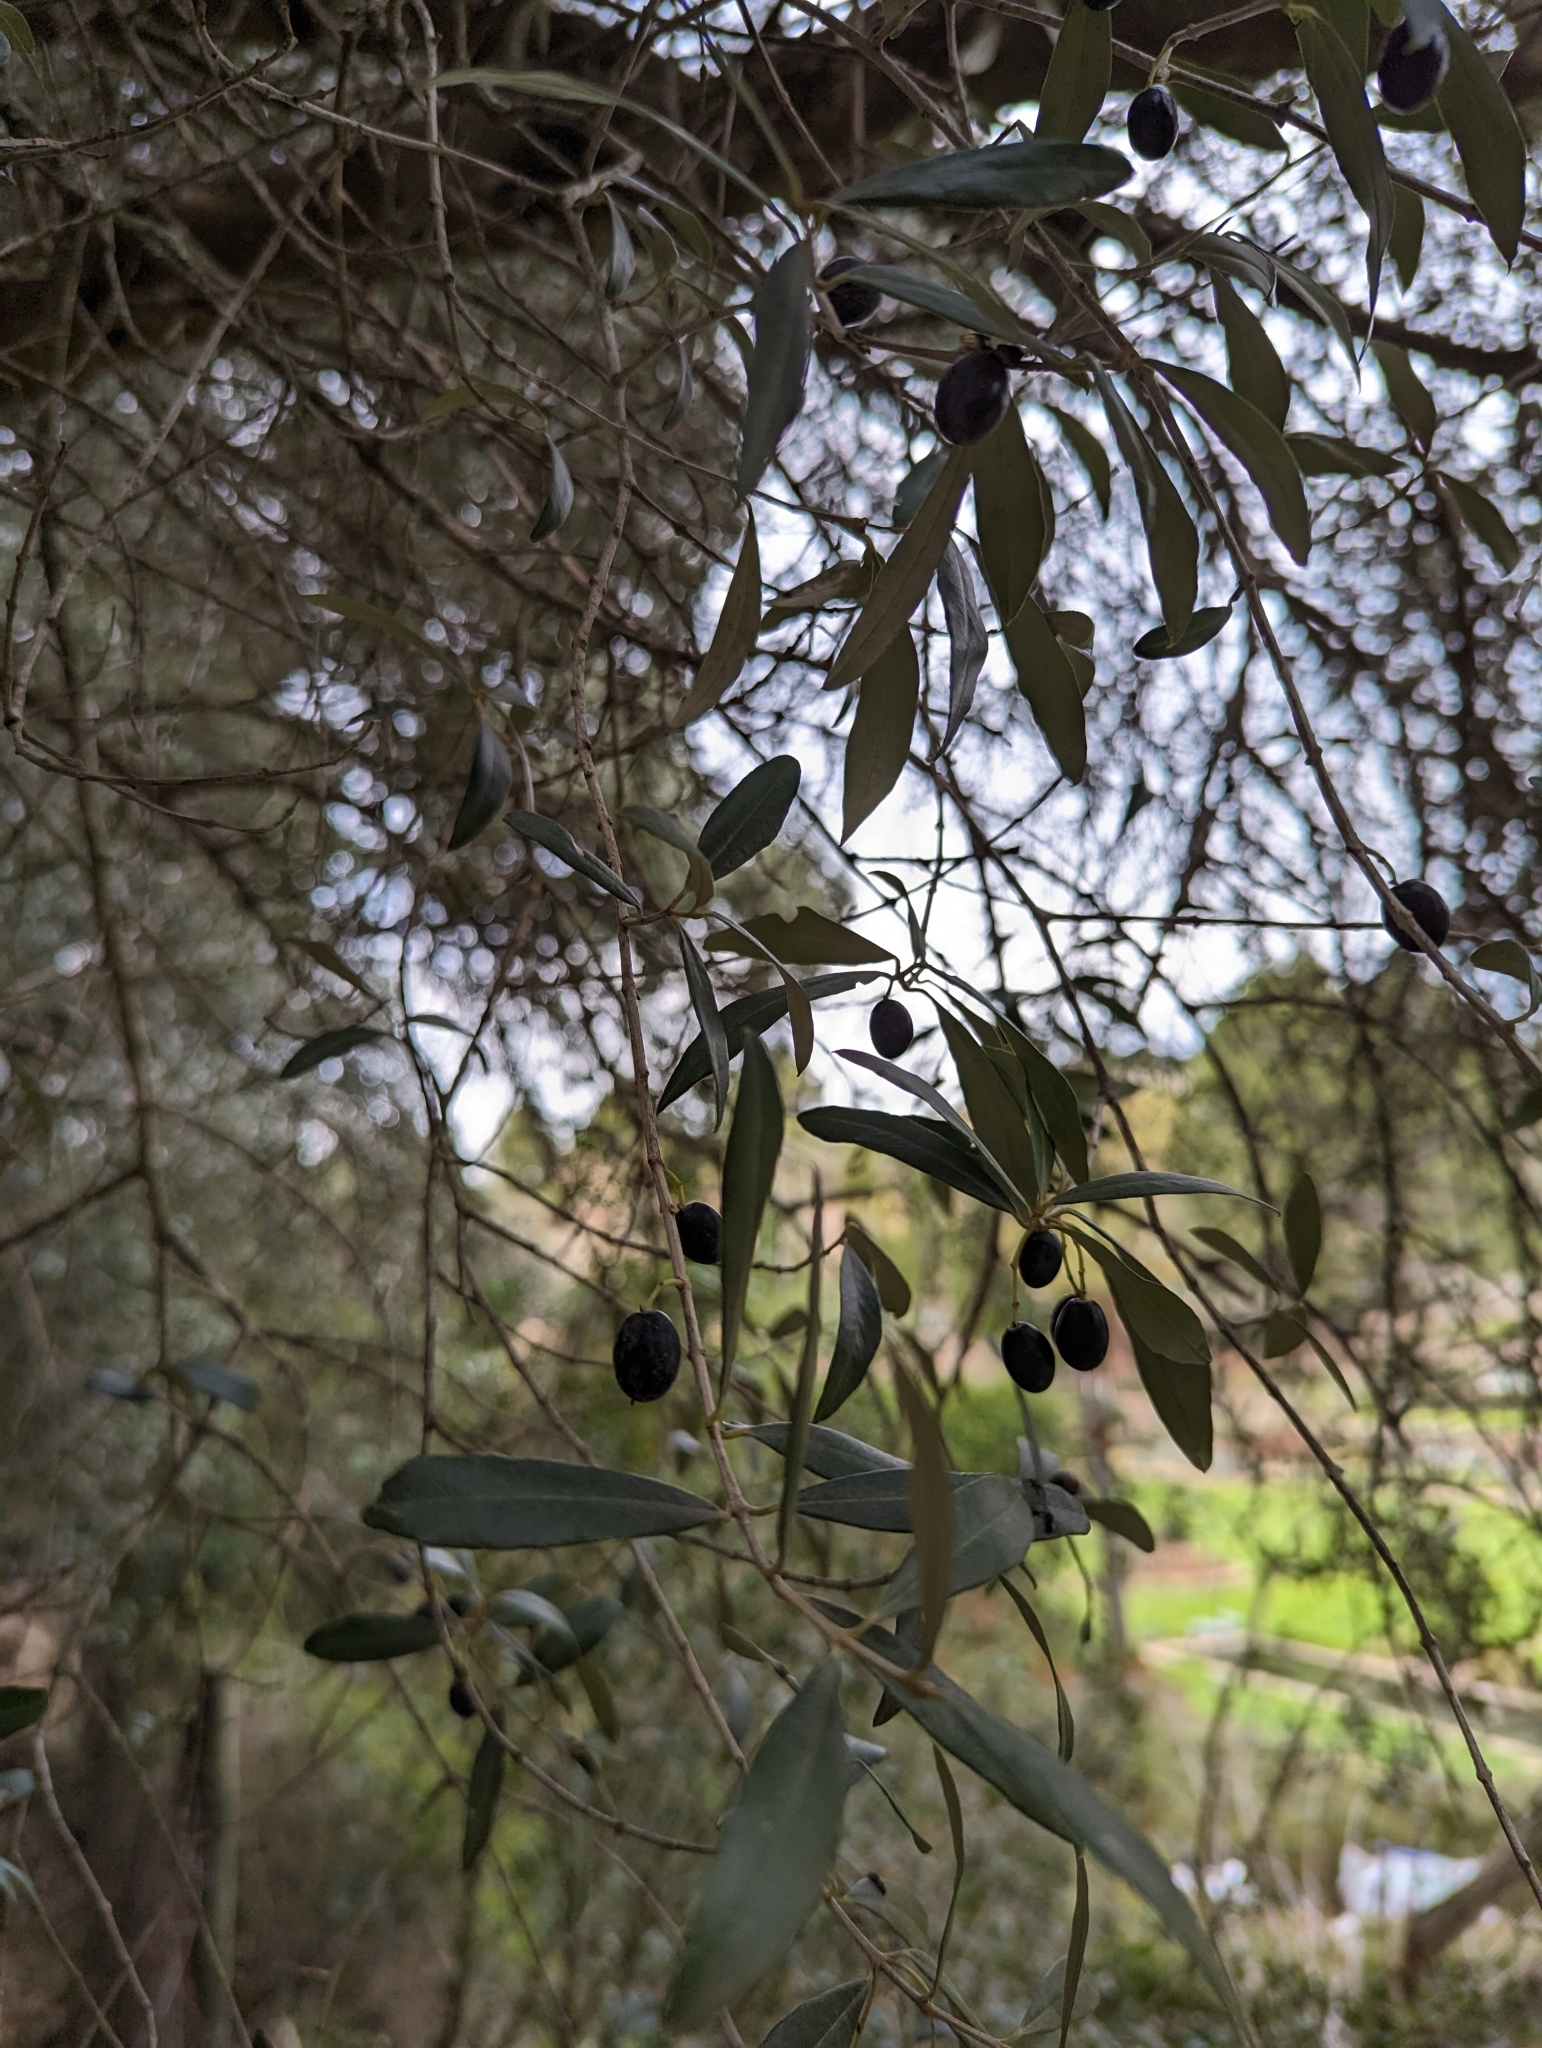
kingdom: Plantae
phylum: Tracheophyta
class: Magnoliopsida
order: Lamiales
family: Oleaceae
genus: Olea
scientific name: Olea europaea
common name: Olive
